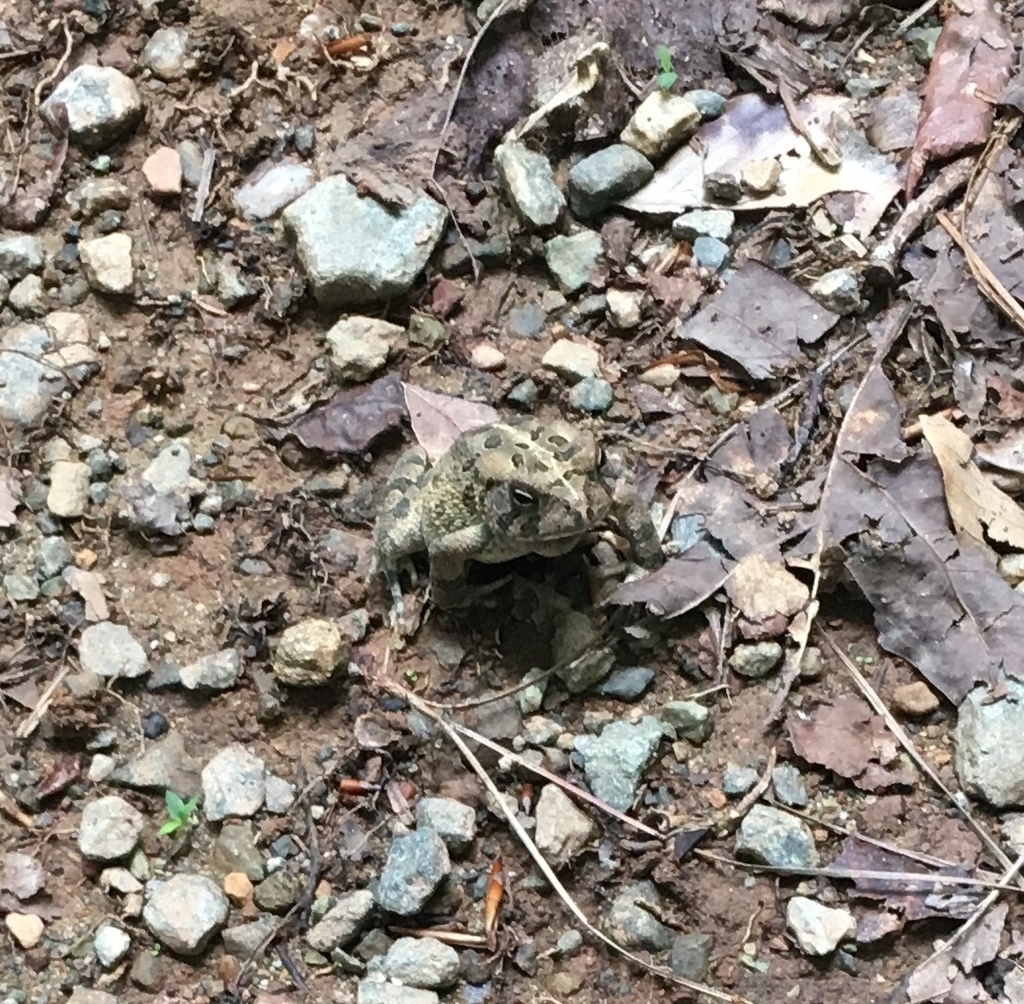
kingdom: Animalia
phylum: Chordata
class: Amphibia
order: Anura
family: Bufonidae
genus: Anaxyrus
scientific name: Anaxyrus fowleri
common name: Fowler's toad
